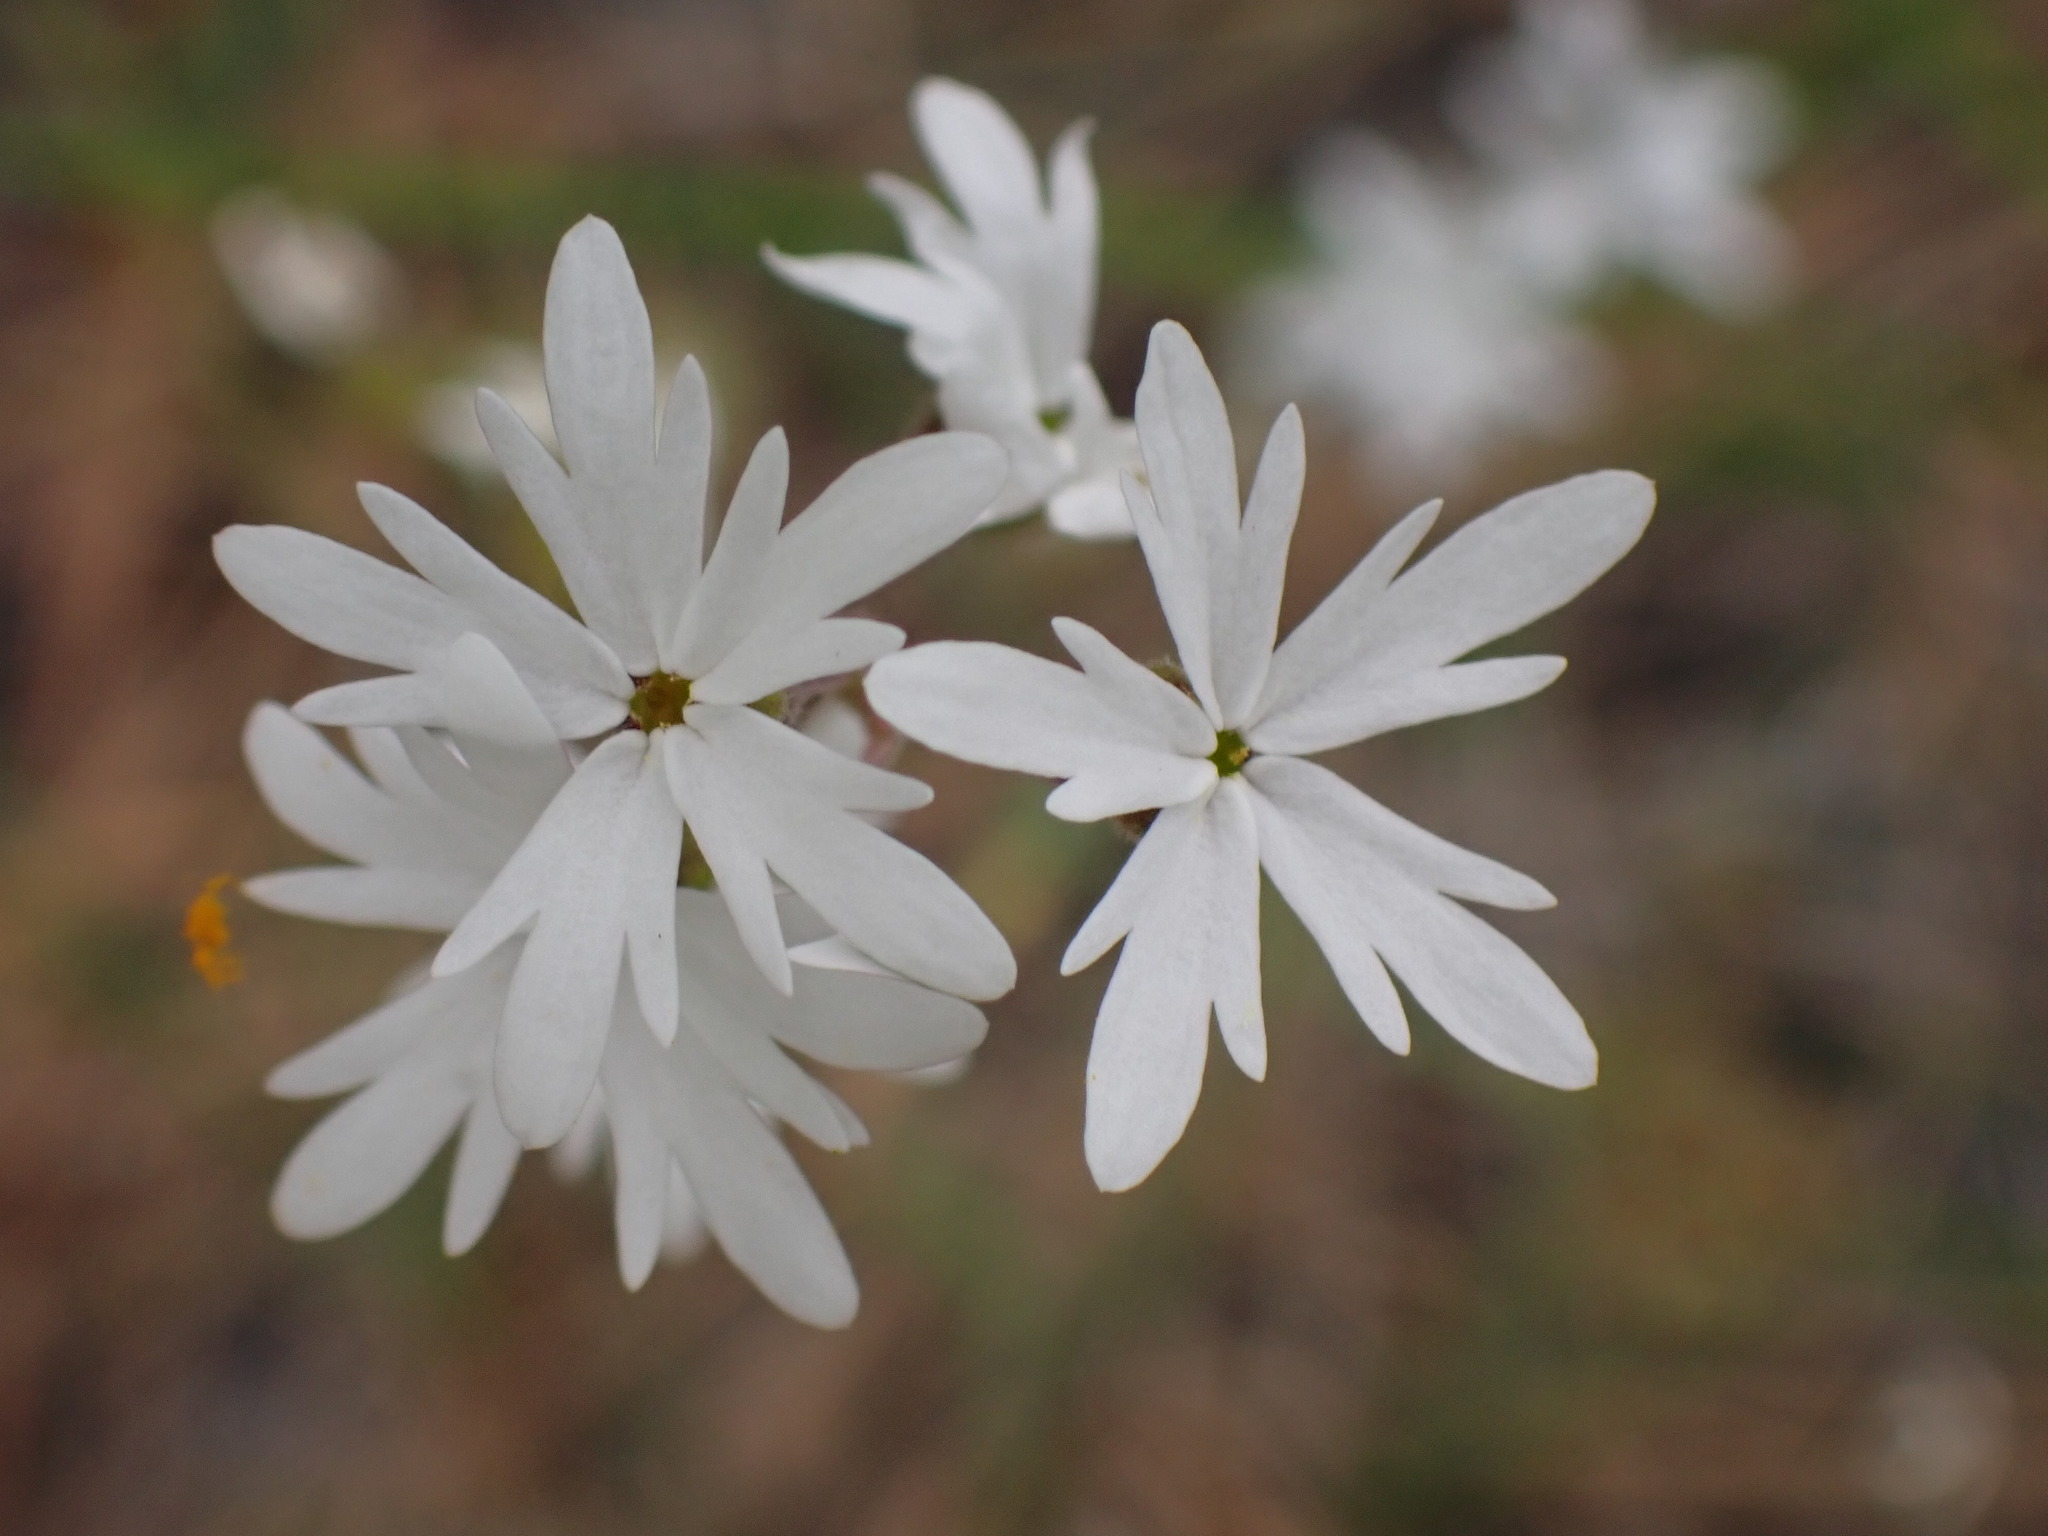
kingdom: Plantae
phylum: Tracheophyta
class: Magnoliopsida
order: Saxifragales
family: Saxifragaceae
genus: Lithophragma
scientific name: Lithophragma parviflorum
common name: Small-flowered fringe-cup
